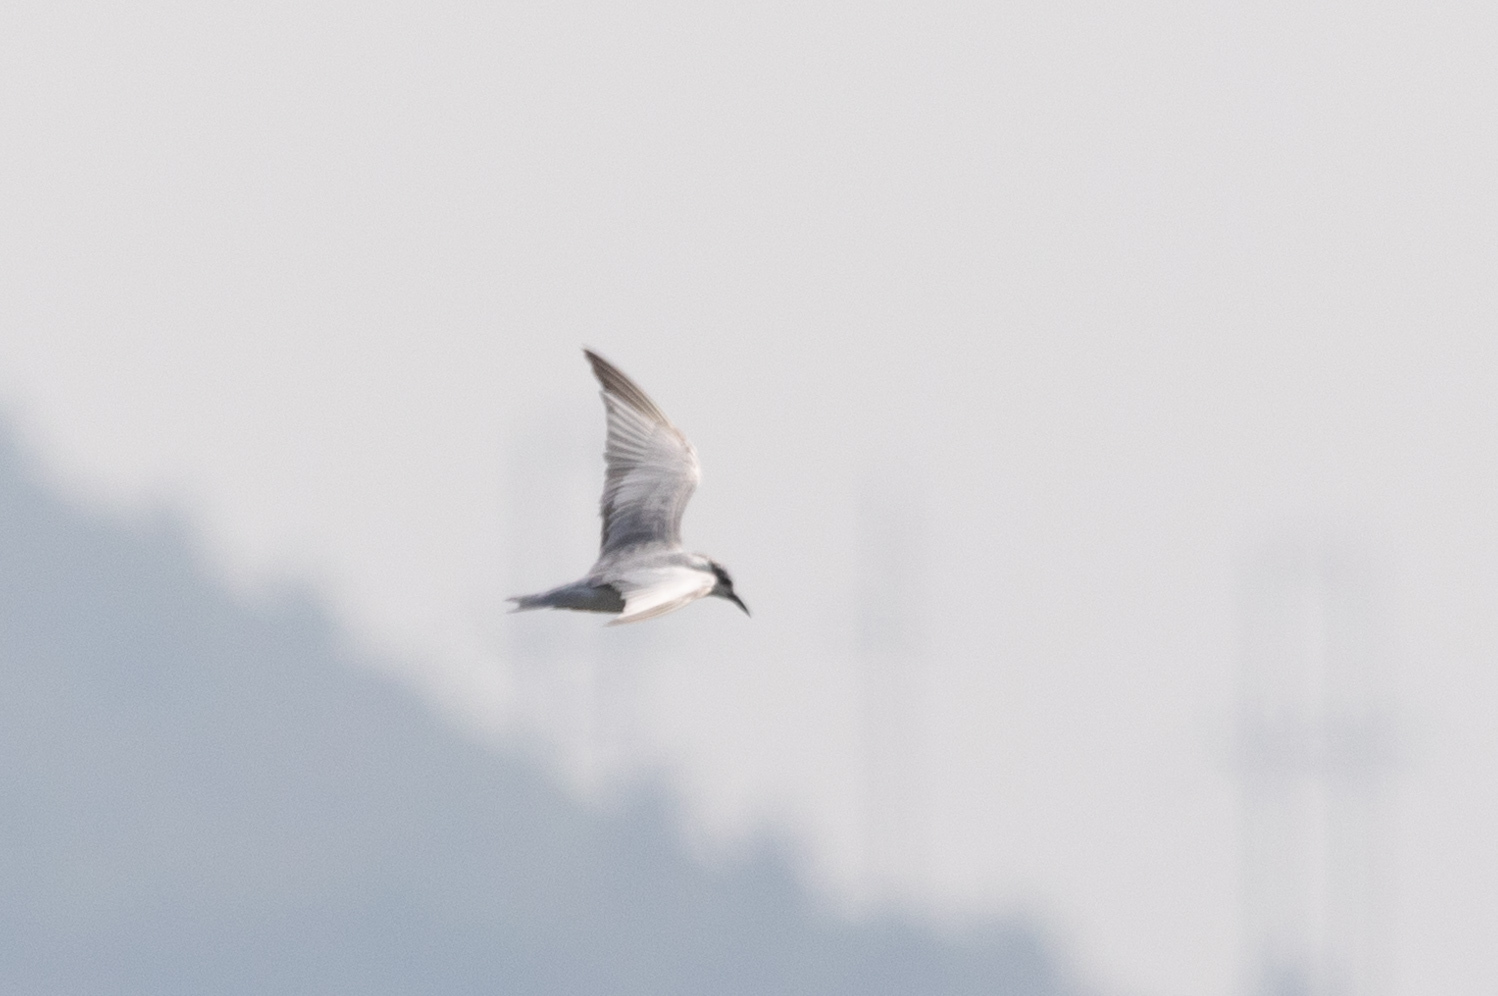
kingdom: Animalia
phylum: Chordata
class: Aves
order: Charadriiformes
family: Laridae
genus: Chlidonias
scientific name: Chlidonias hybrida
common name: Whiskered tern
